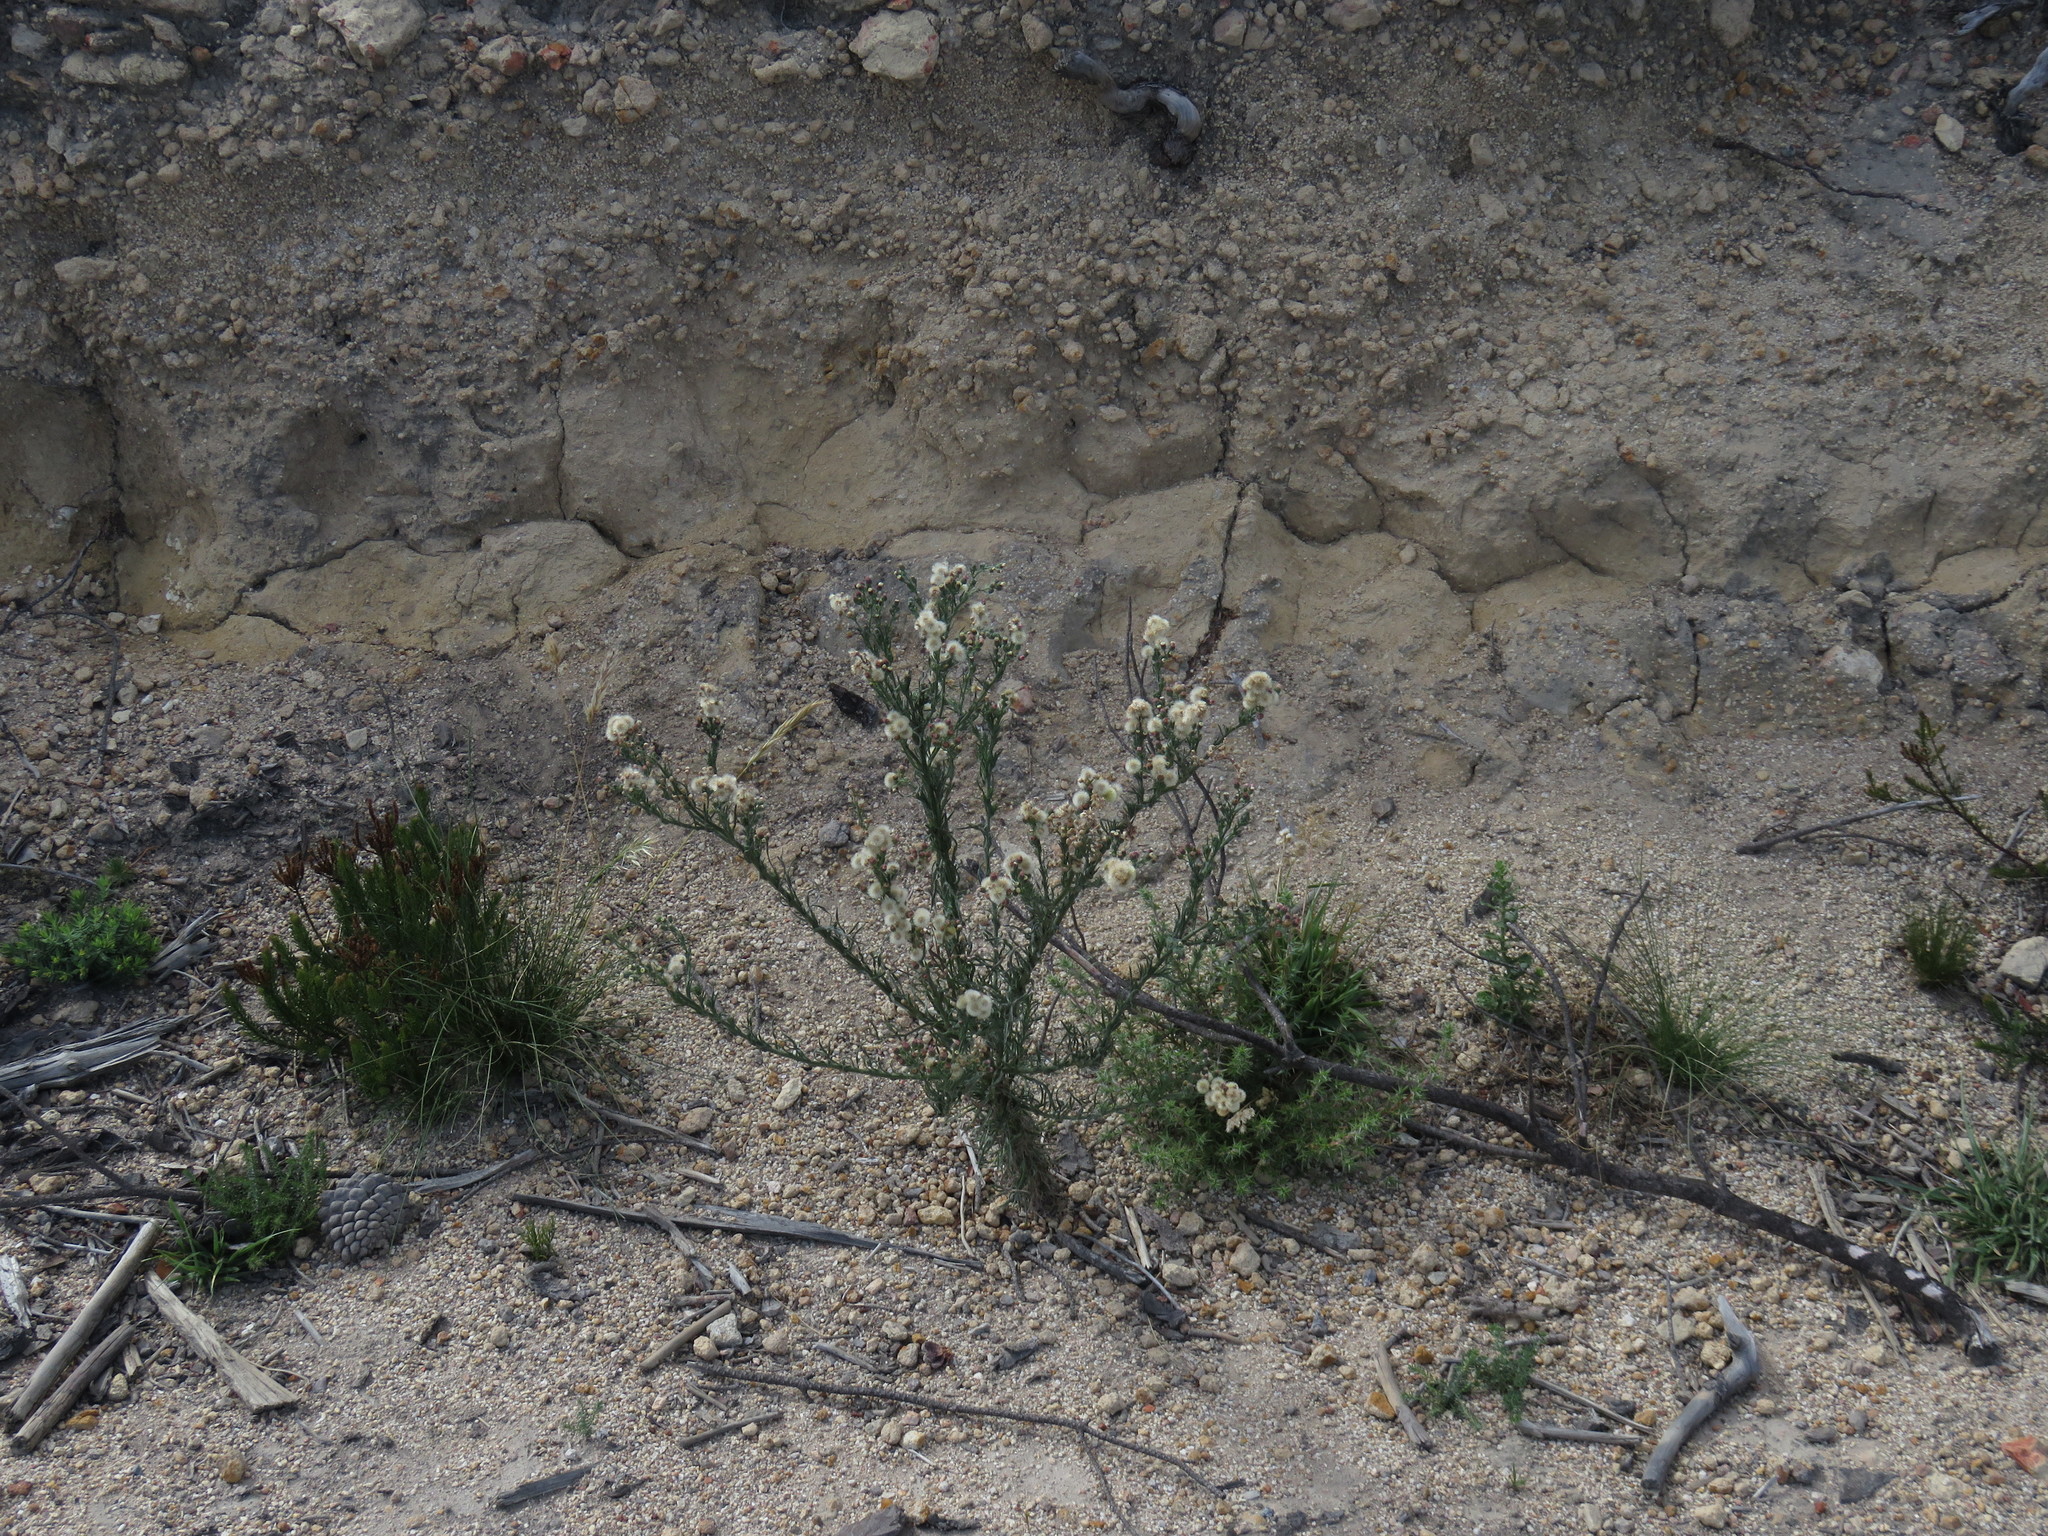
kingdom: Plantae
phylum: Tracheophyta
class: Magnoliopsida
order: Asterales
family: Asteraceae
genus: Erigeron
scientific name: Erigeron bonariensis
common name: Argentine fleabane
